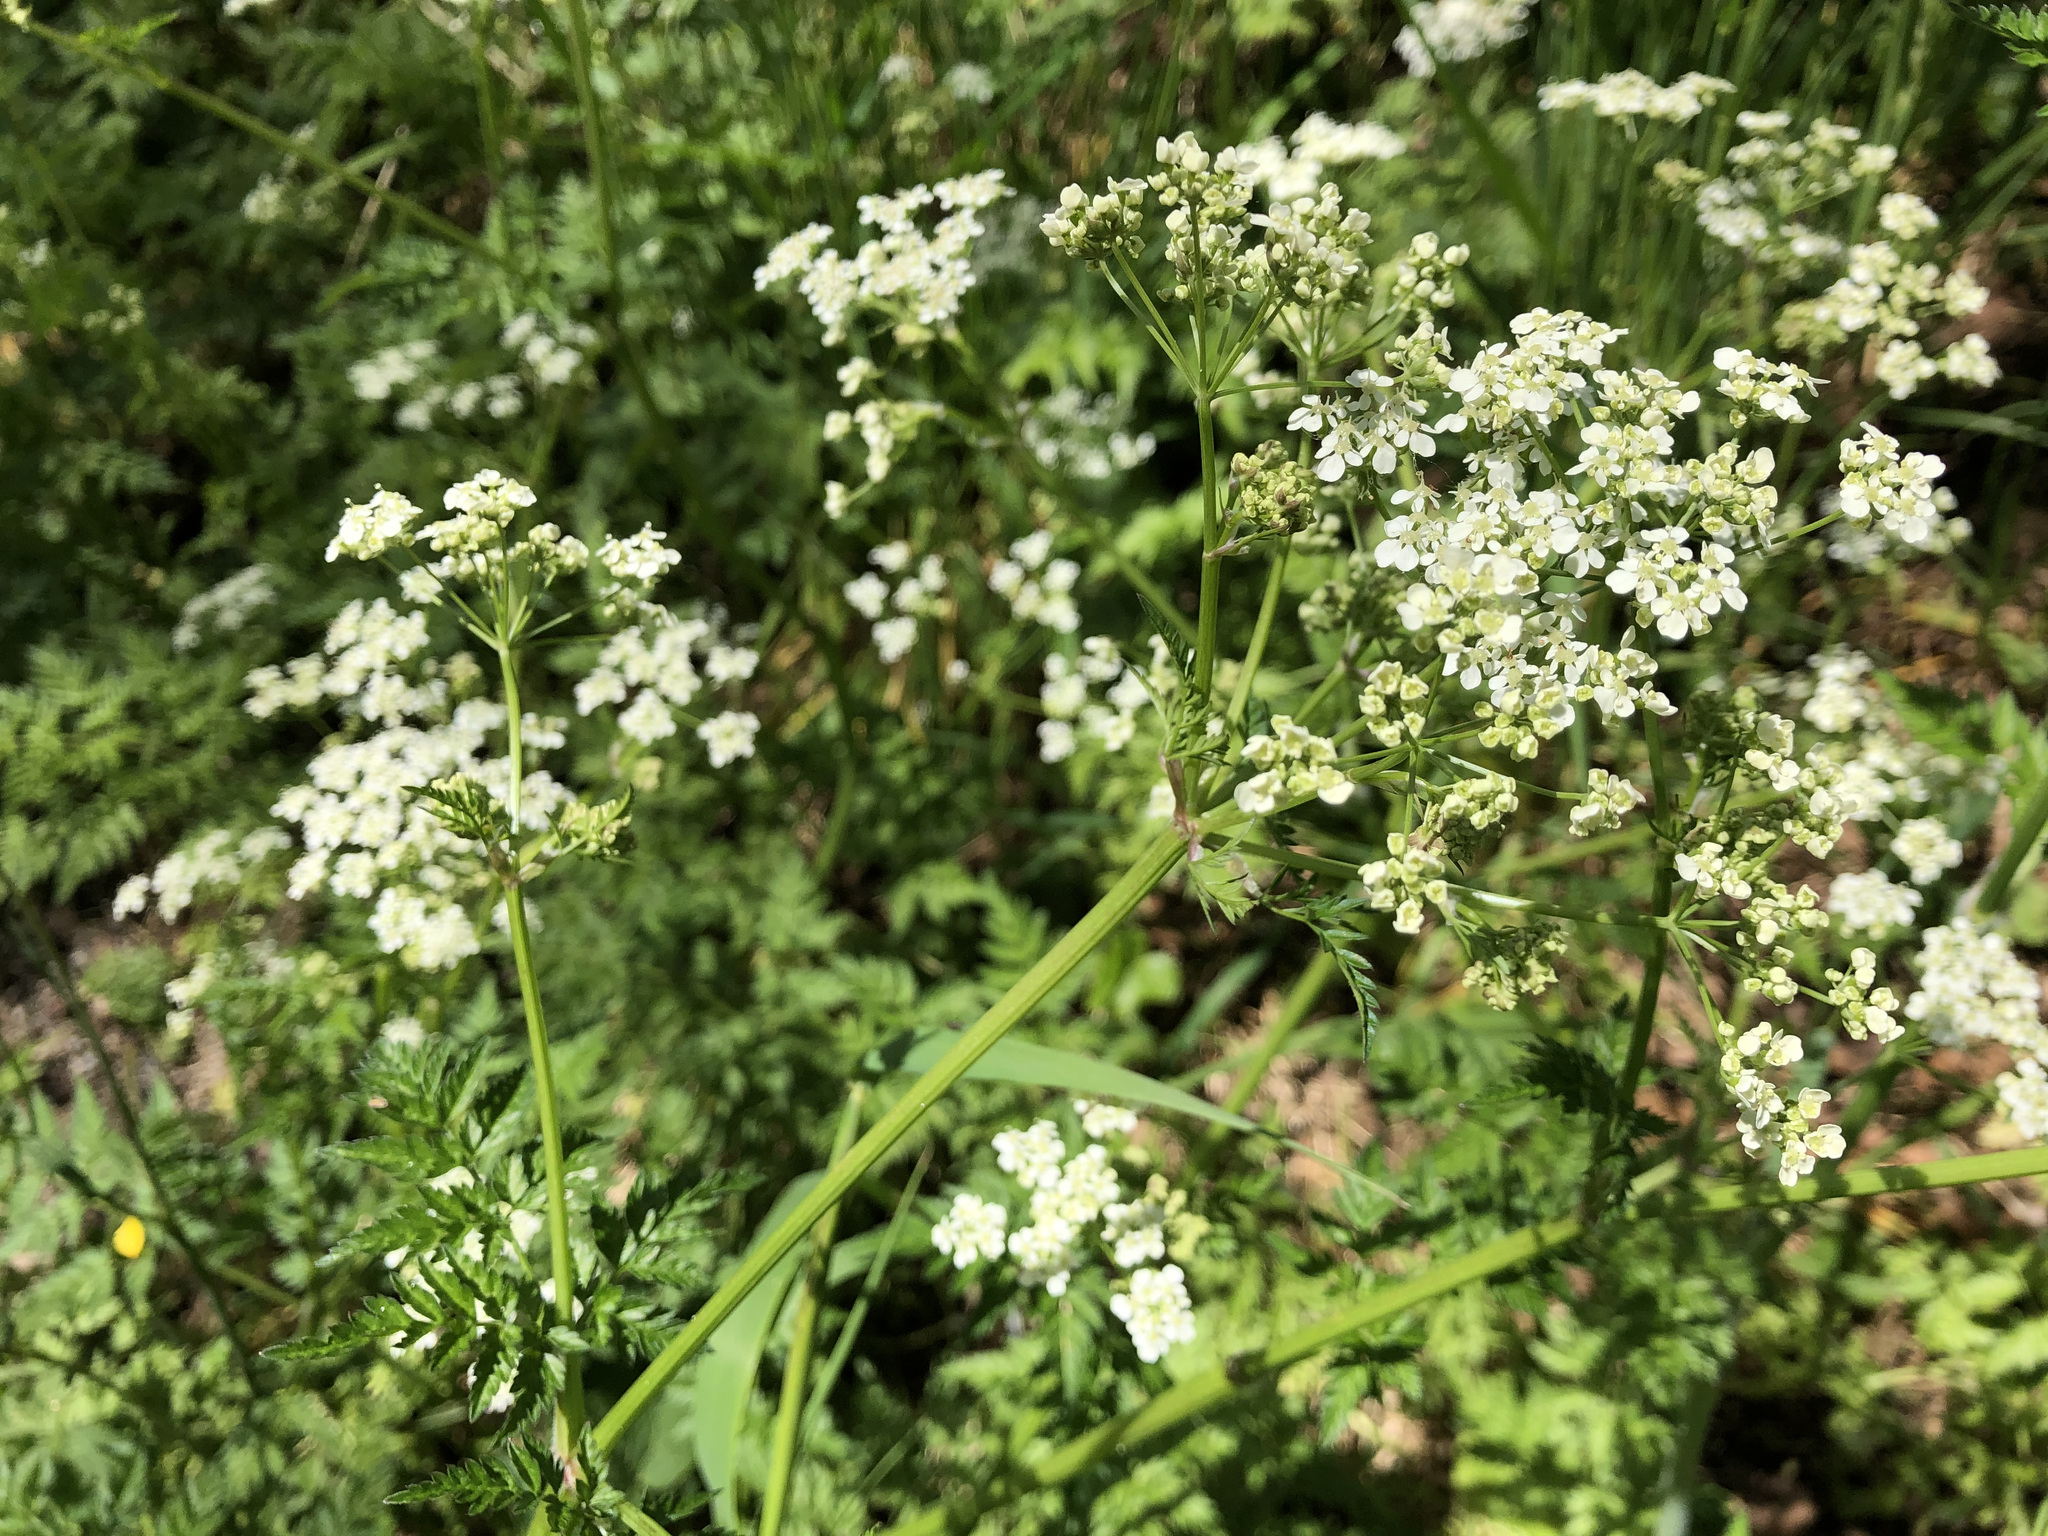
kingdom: Plantae
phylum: Tracheophyta
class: Magnoliopsida
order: Apiales
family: Apiaceae
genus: Anthriscus
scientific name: Anthriscus sylvestris
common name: Cow parsley
